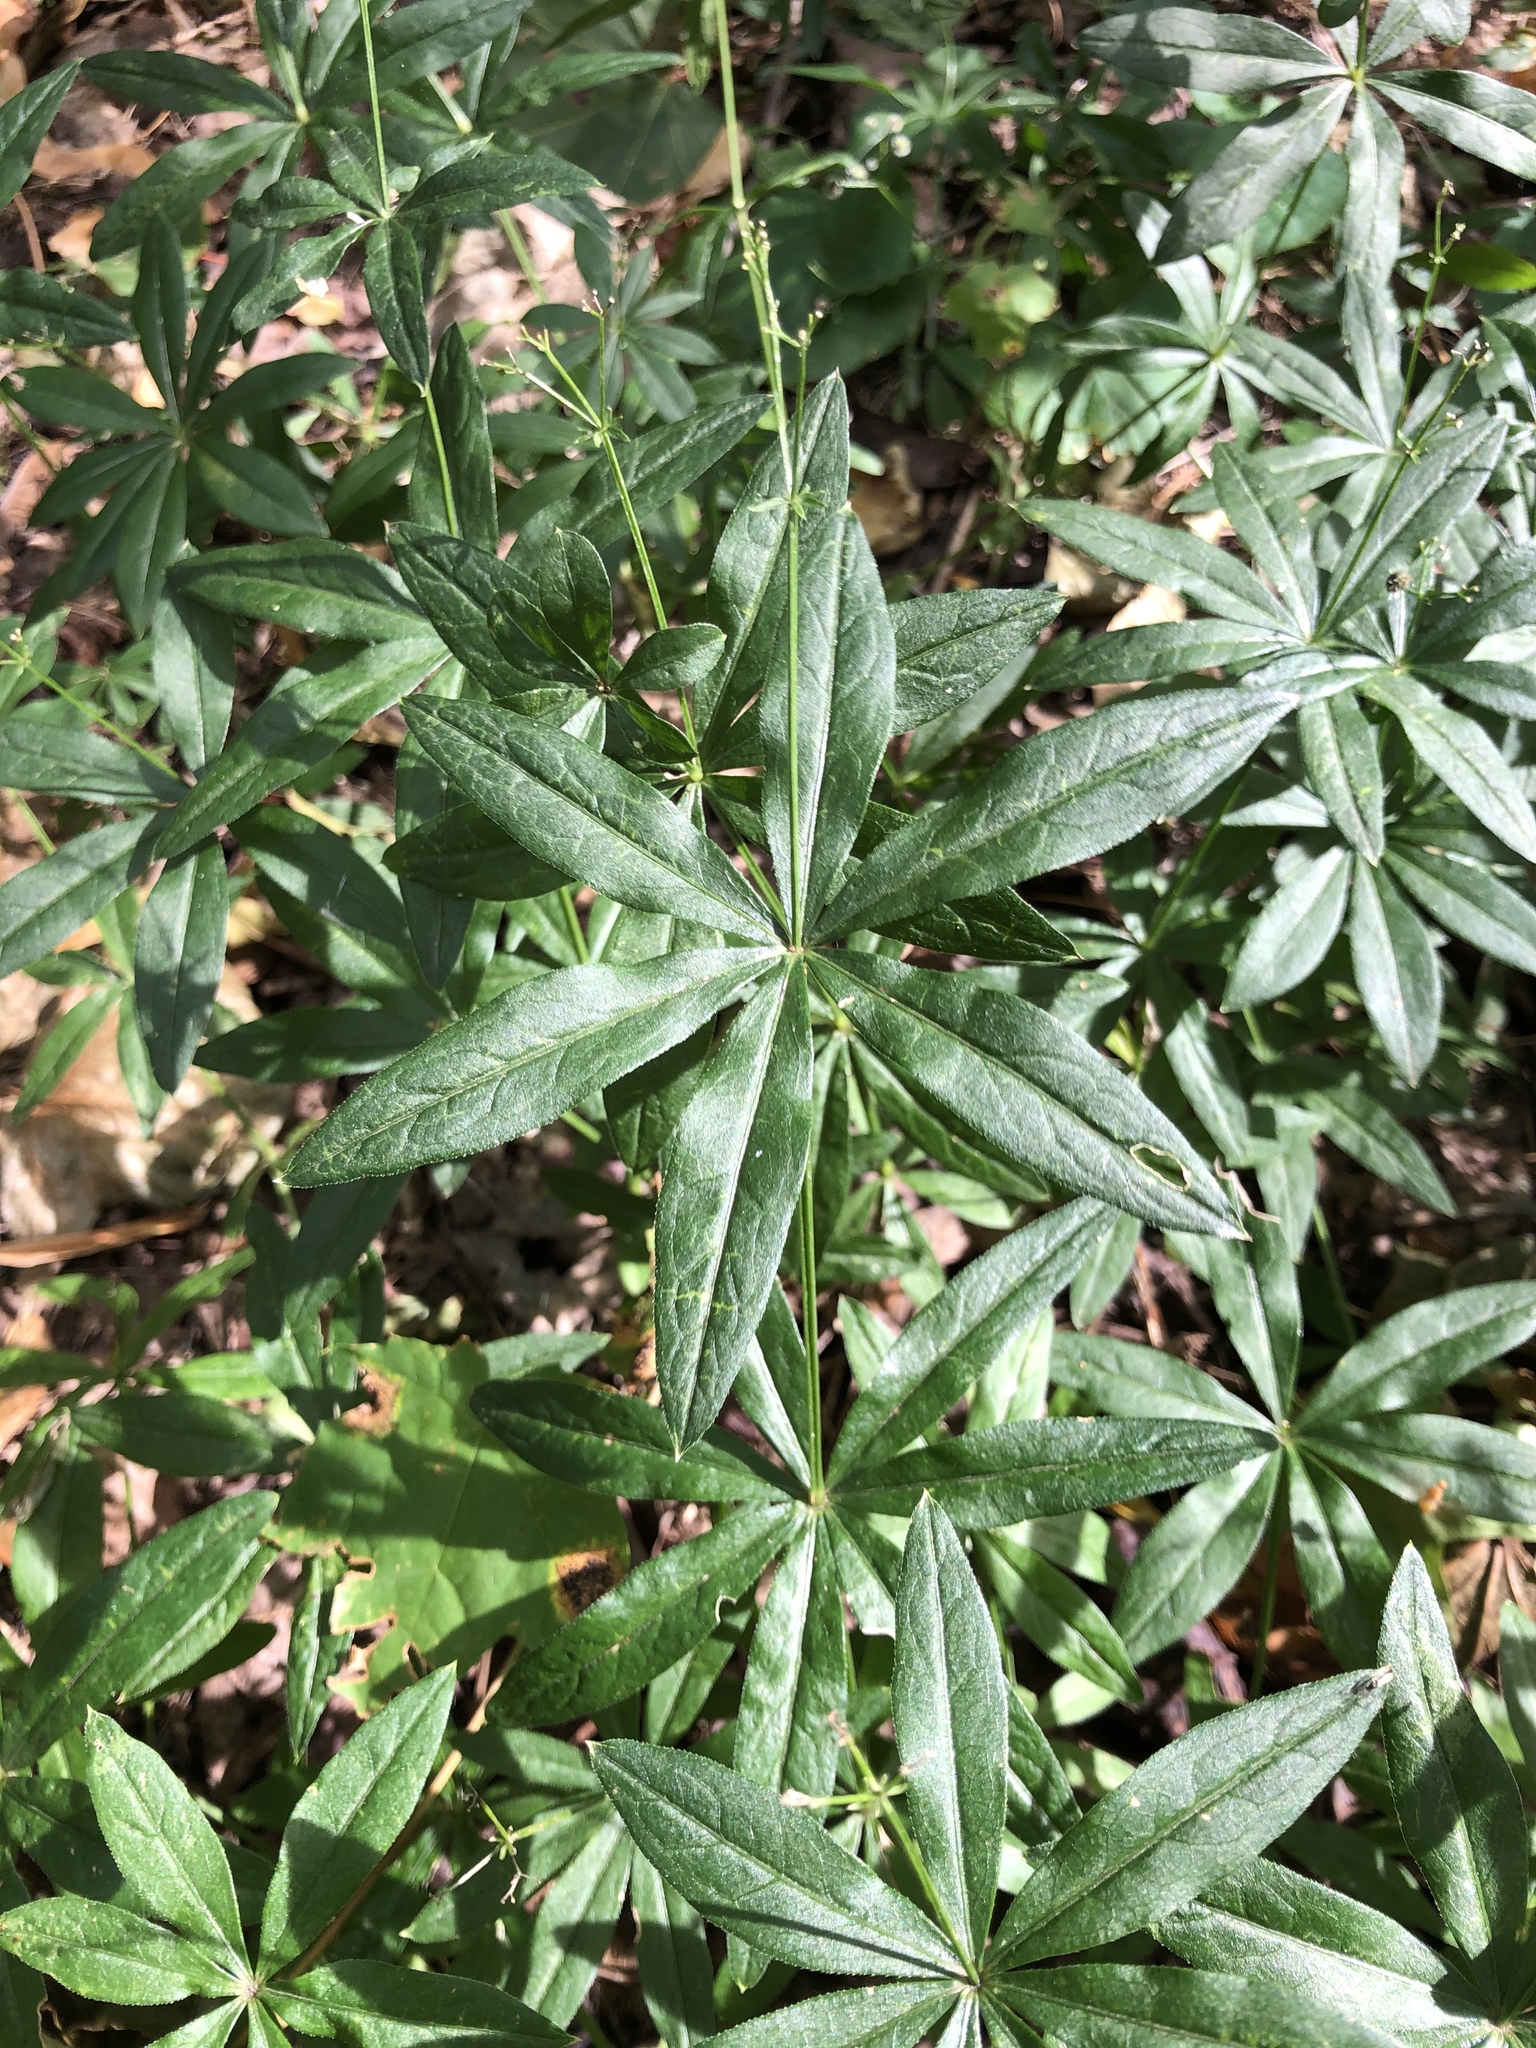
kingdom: Plantae
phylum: Tracheophyta
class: Magnoliopsida
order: Gentianales
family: Rubiaceae
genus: Galium
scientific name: Galium odoratum
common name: Sweet woodruff
